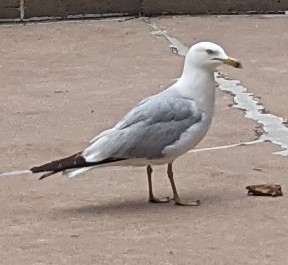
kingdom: Animalia
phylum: Chordata
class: Aves
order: Charadriiformes
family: Laridae
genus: Larus
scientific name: Larus delawarensis
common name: Ring-billed gull
